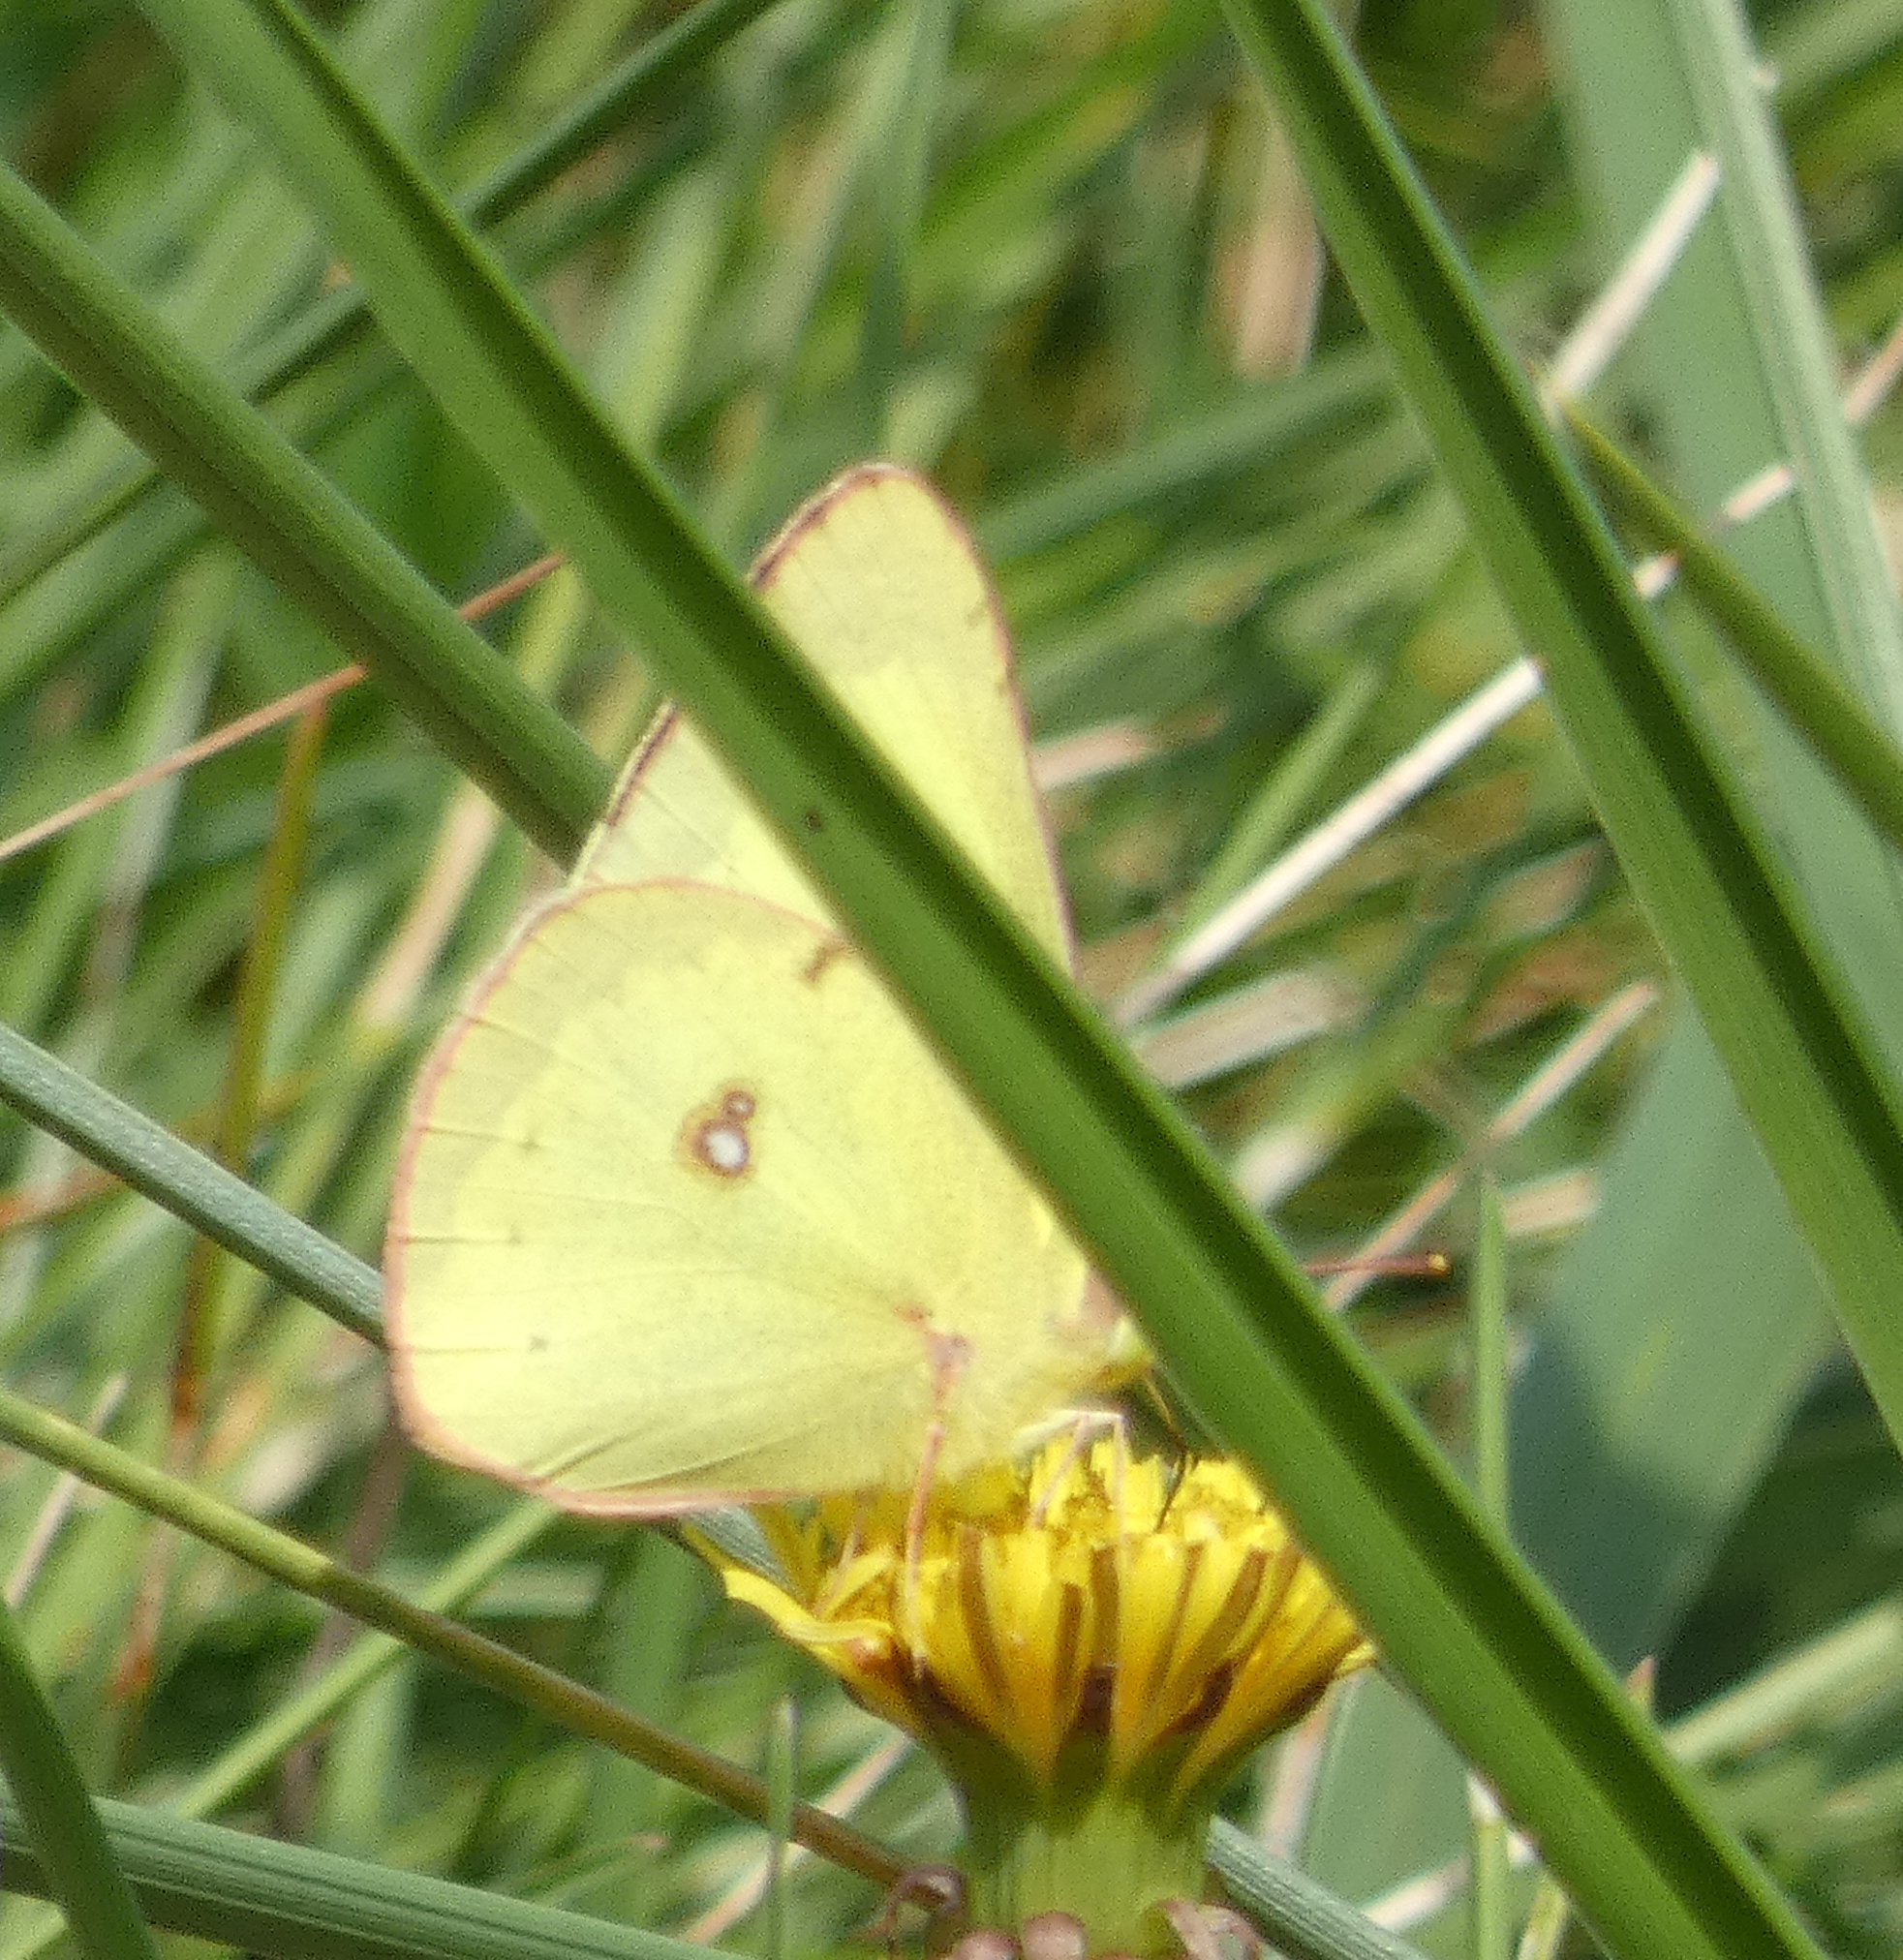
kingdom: Animalia
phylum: Arthropoda
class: Insecta
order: Lepidoptera
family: Pieridae
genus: Colias
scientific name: Colias philodice
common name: Clouded sulphur
